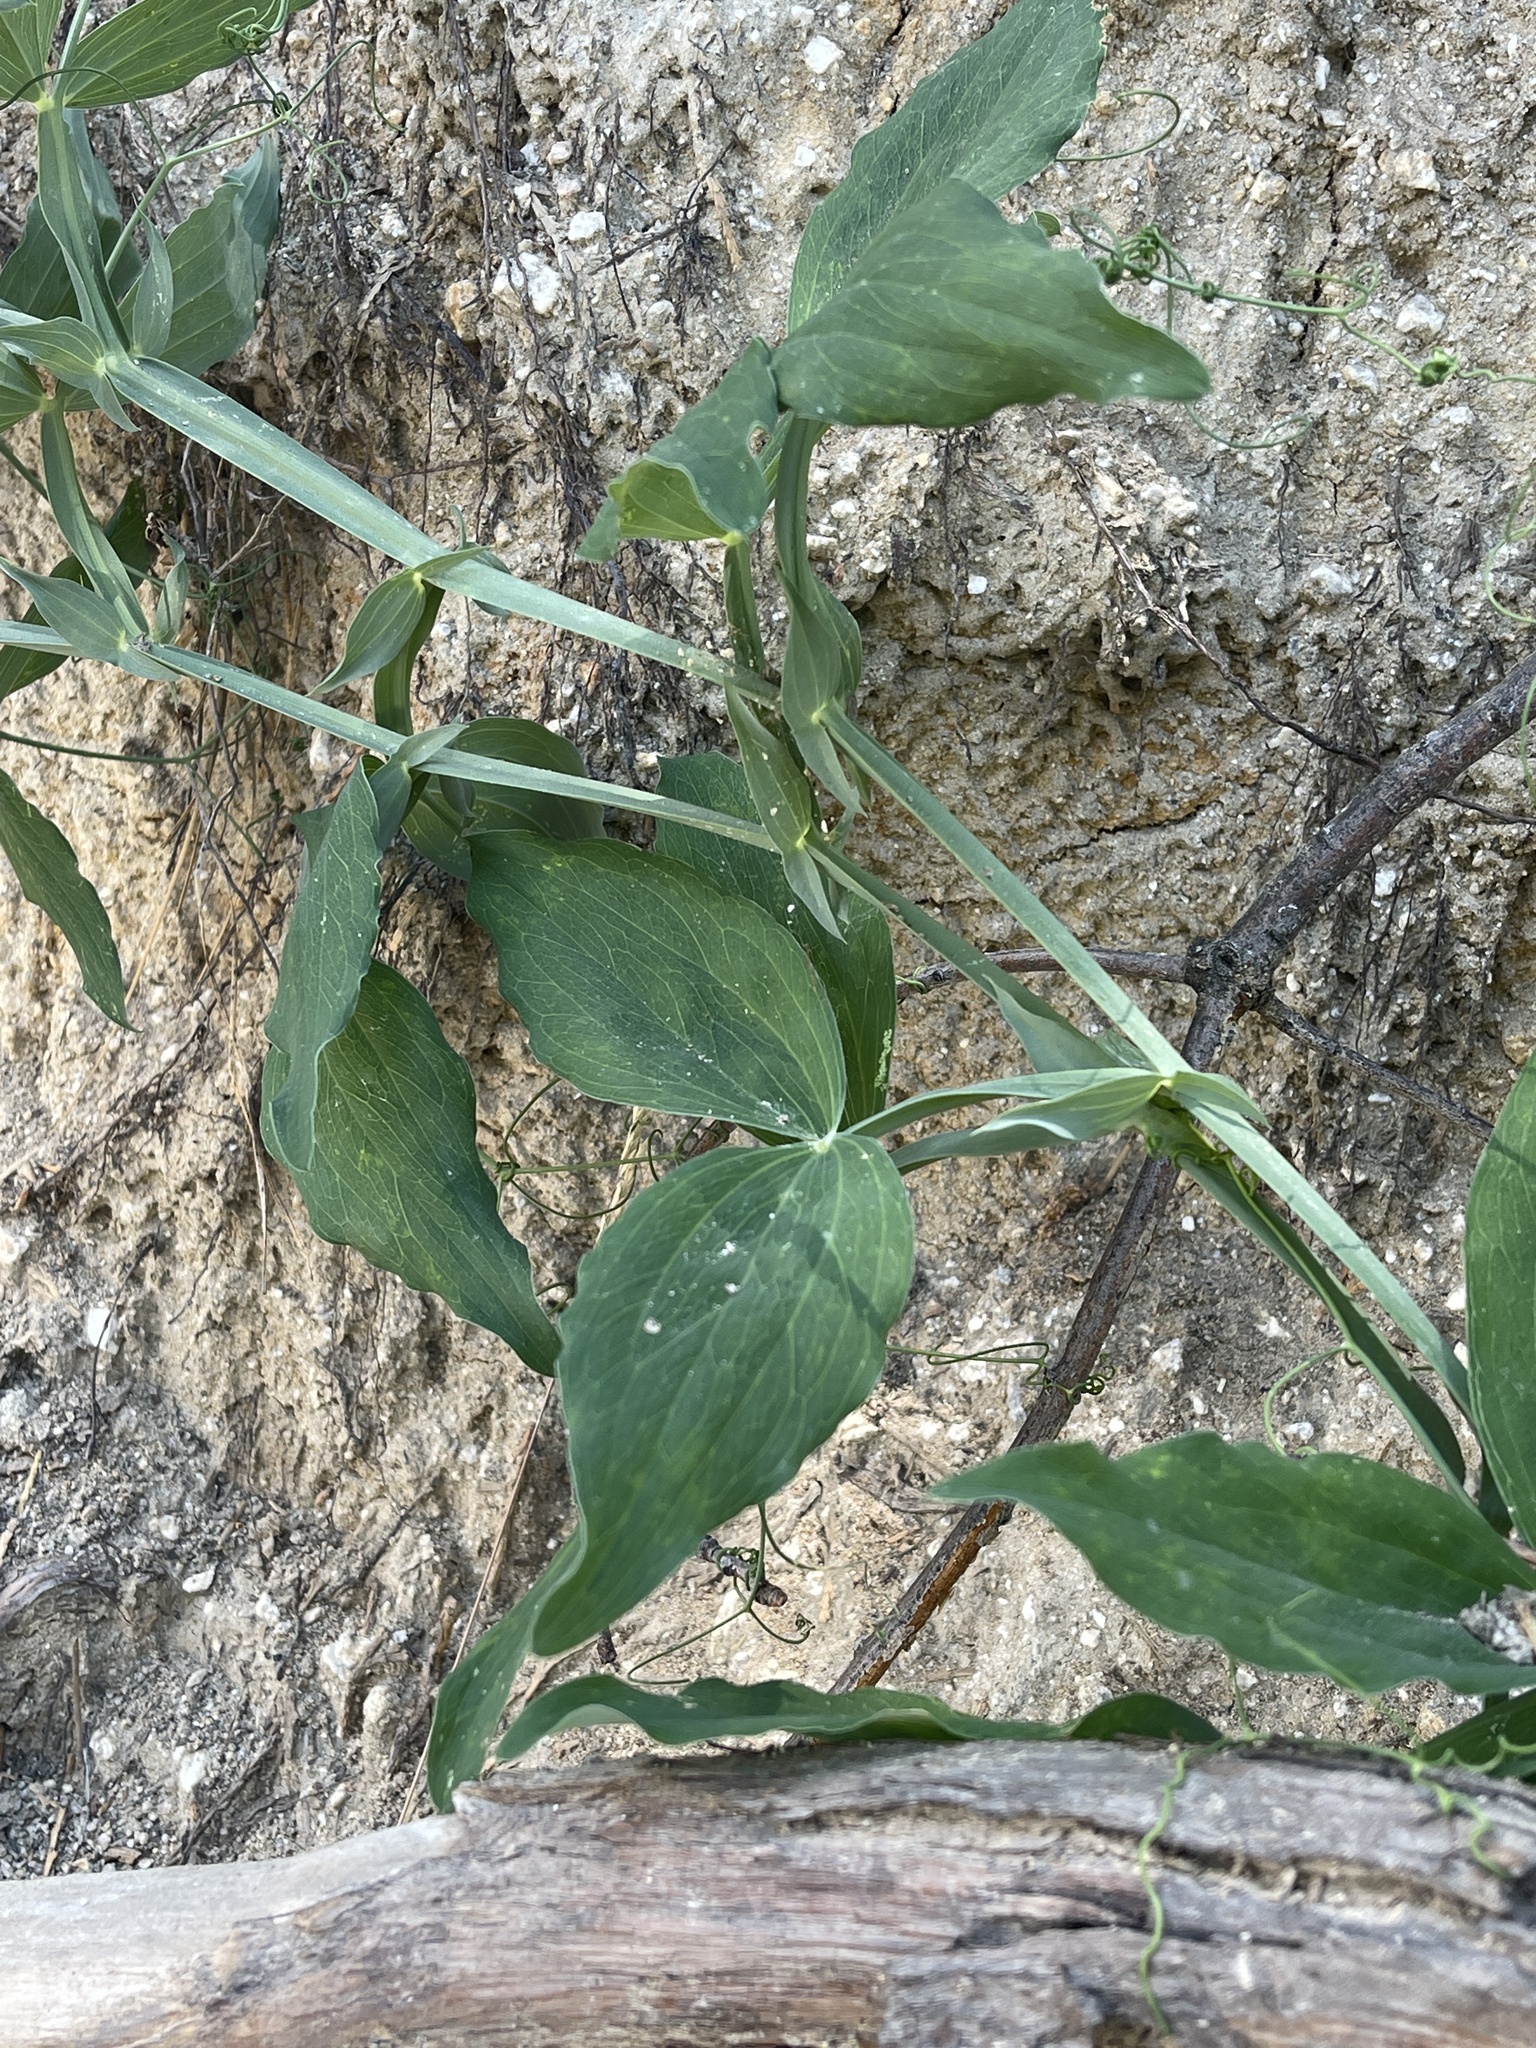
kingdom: Plantae
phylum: Tracheophyta
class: Magnoliopsida
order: Fabales
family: Fabaceae
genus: Lathyrus
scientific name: Lathyrus latifolius
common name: Perennial pea
